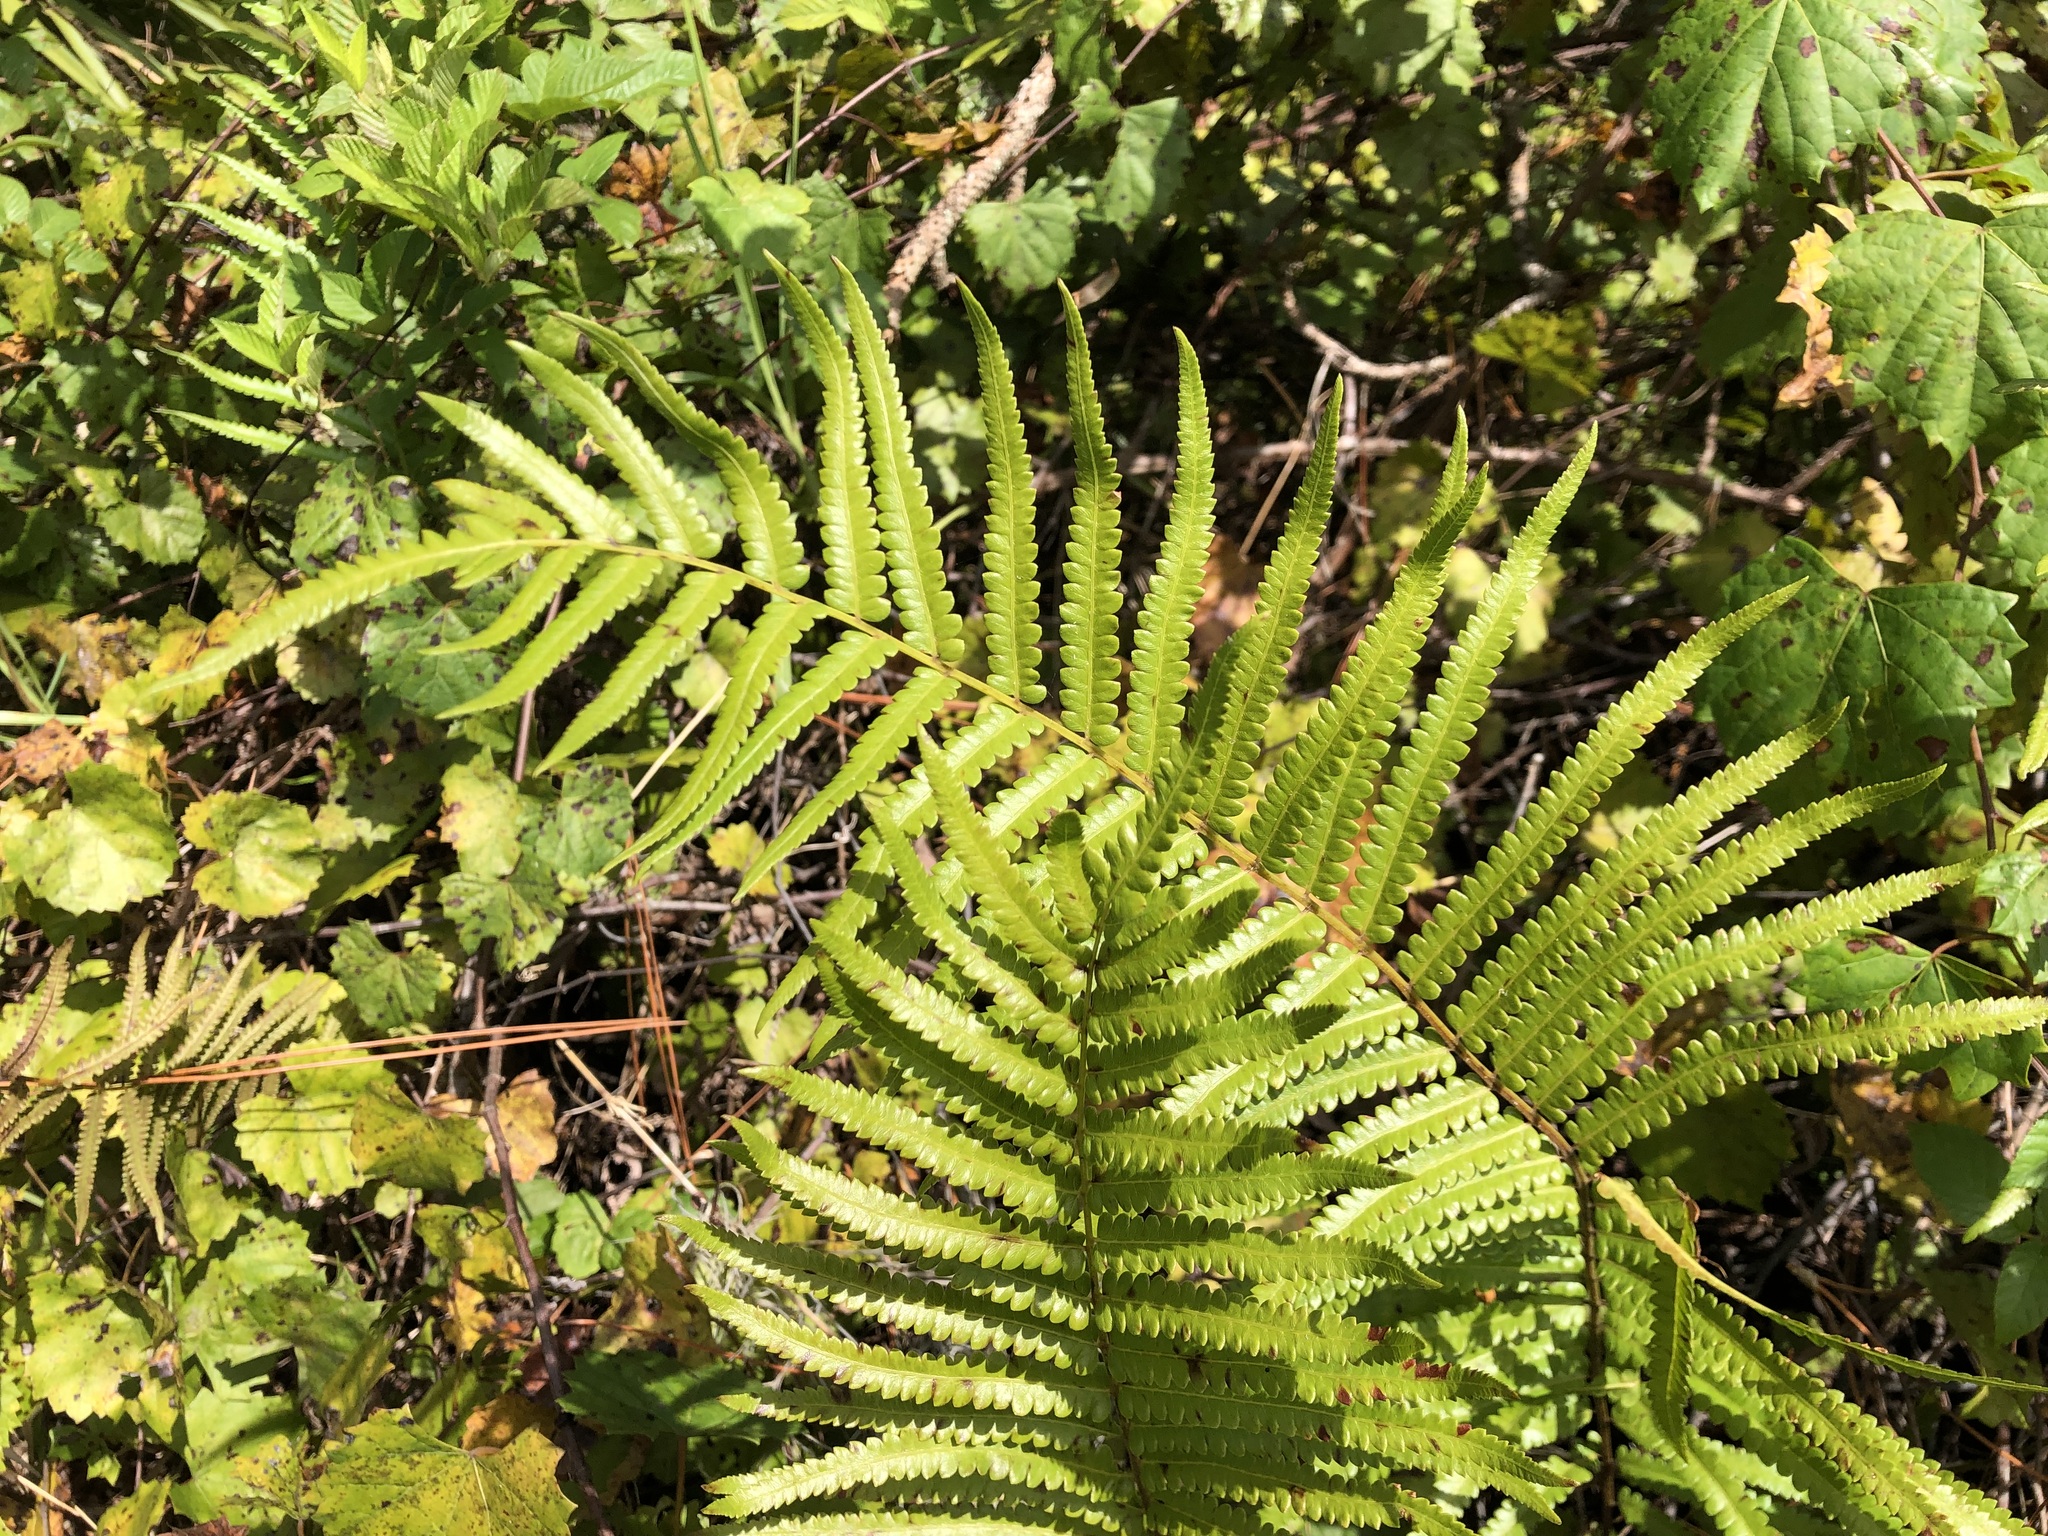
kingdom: Plantae
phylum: Tracheophyta
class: Polypodiopsida
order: Polypodiales
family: Thelypteridaceae
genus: Cyclosorus
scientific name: Cyclosorus interruptus
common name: Neke fern
